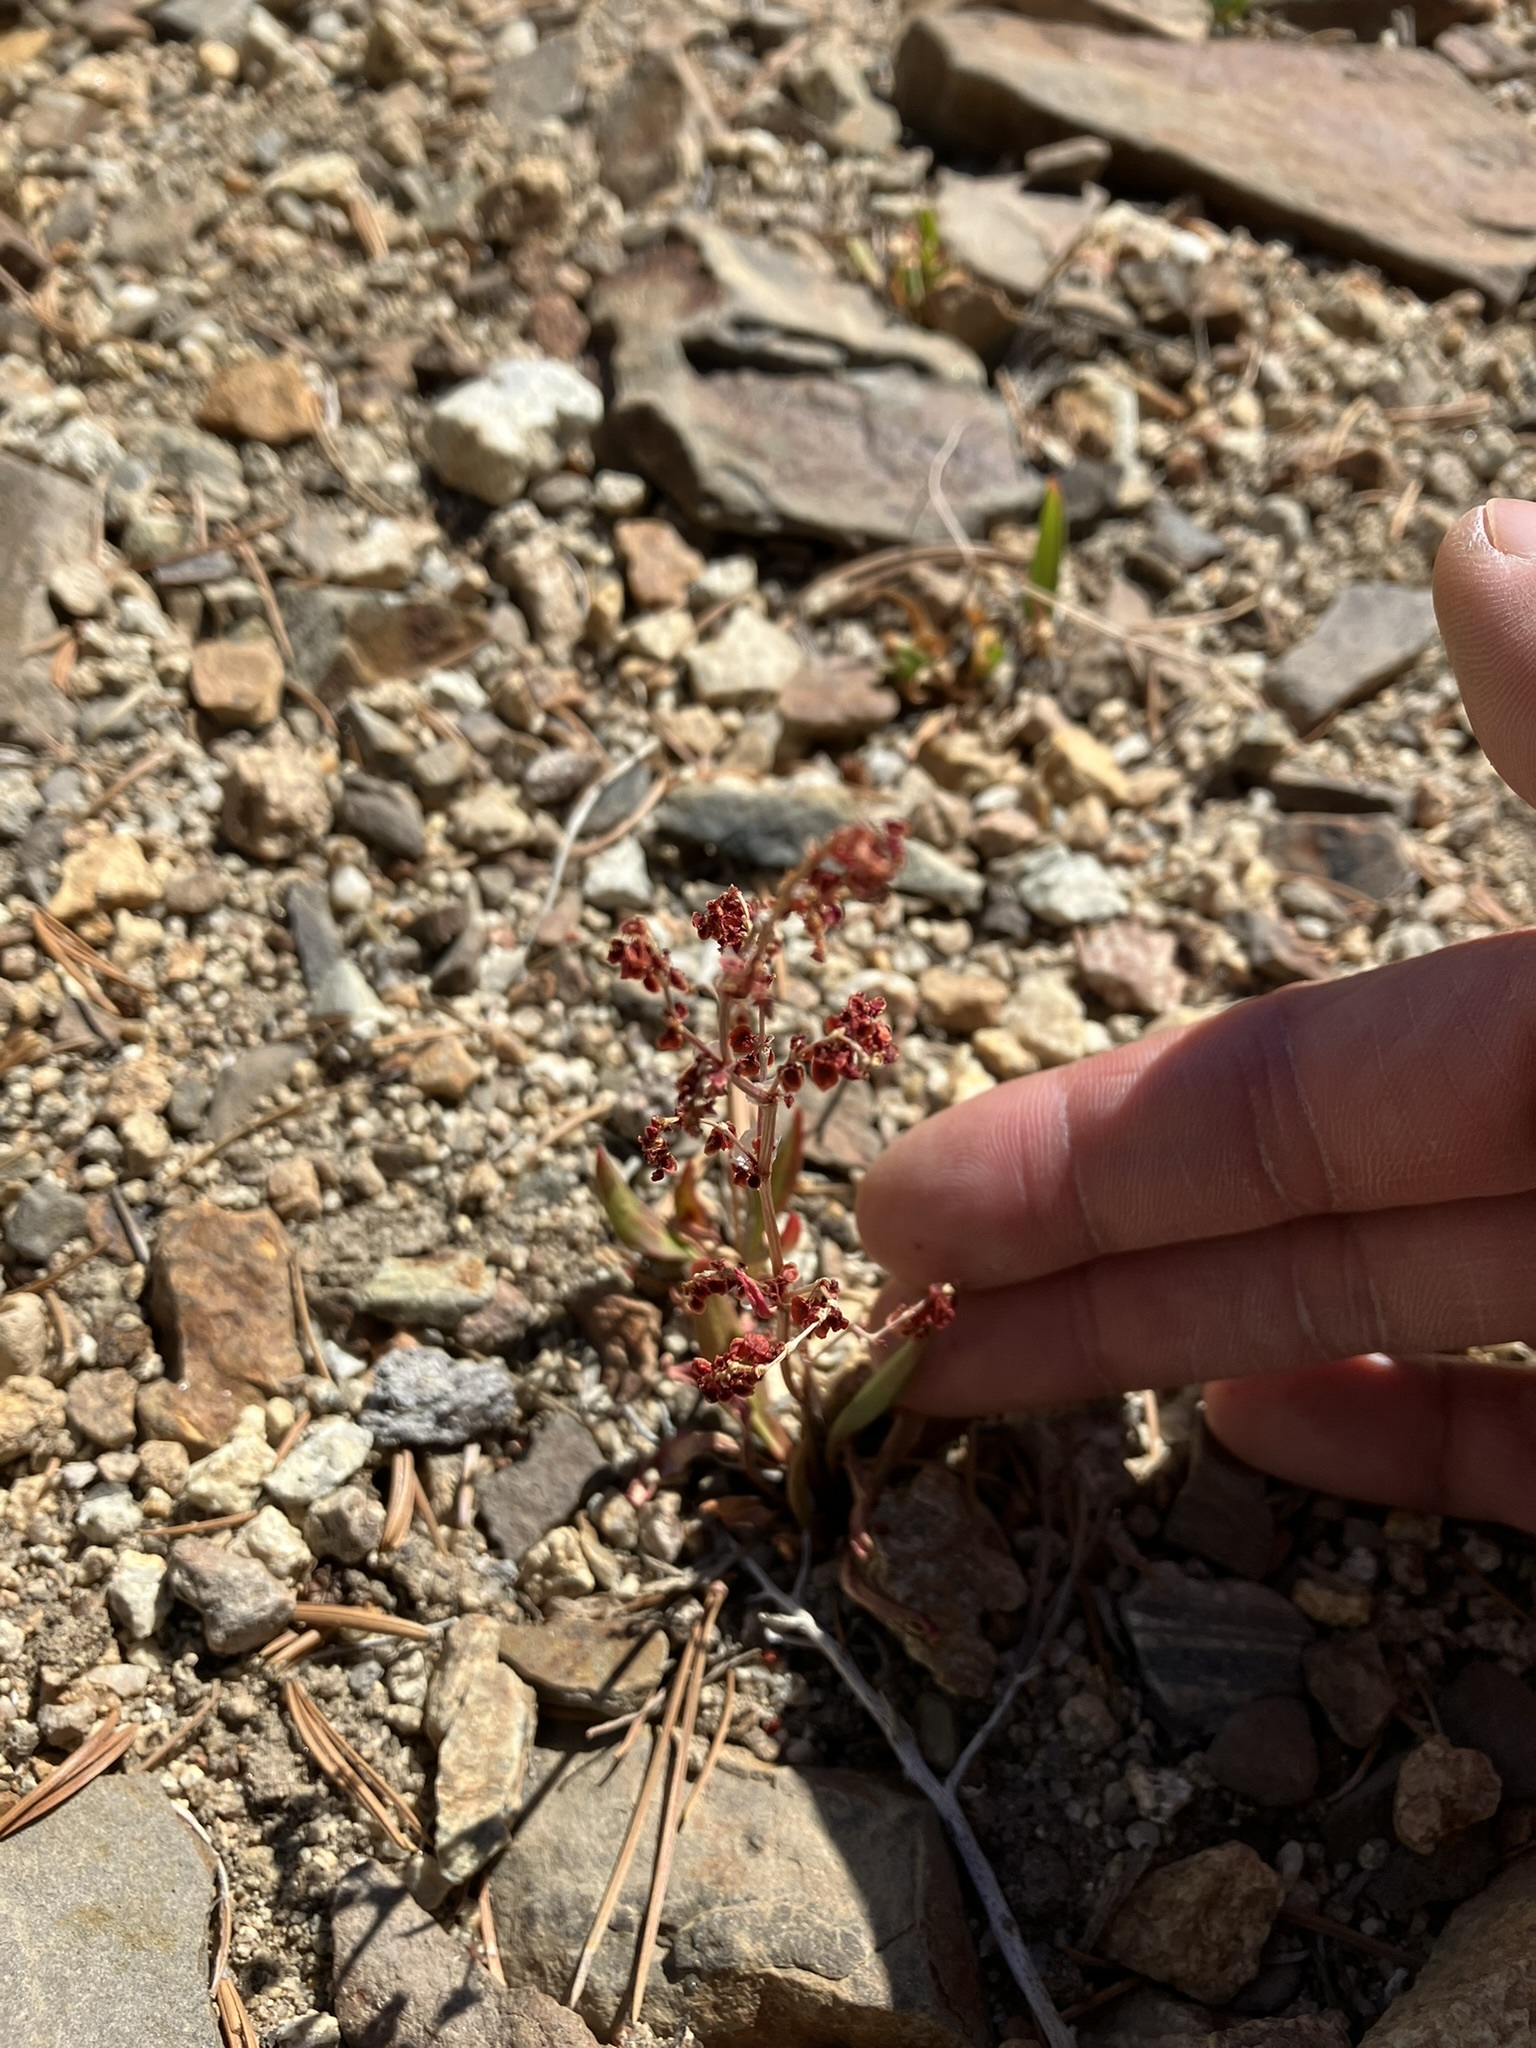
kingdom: Plantae
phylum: Tracheophyta
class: Magnoliopsida
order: Caryophyllales
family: Polygonaceae
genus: Rumex
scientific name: Rumex paucifolius
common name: Alpine sheep sorrel
